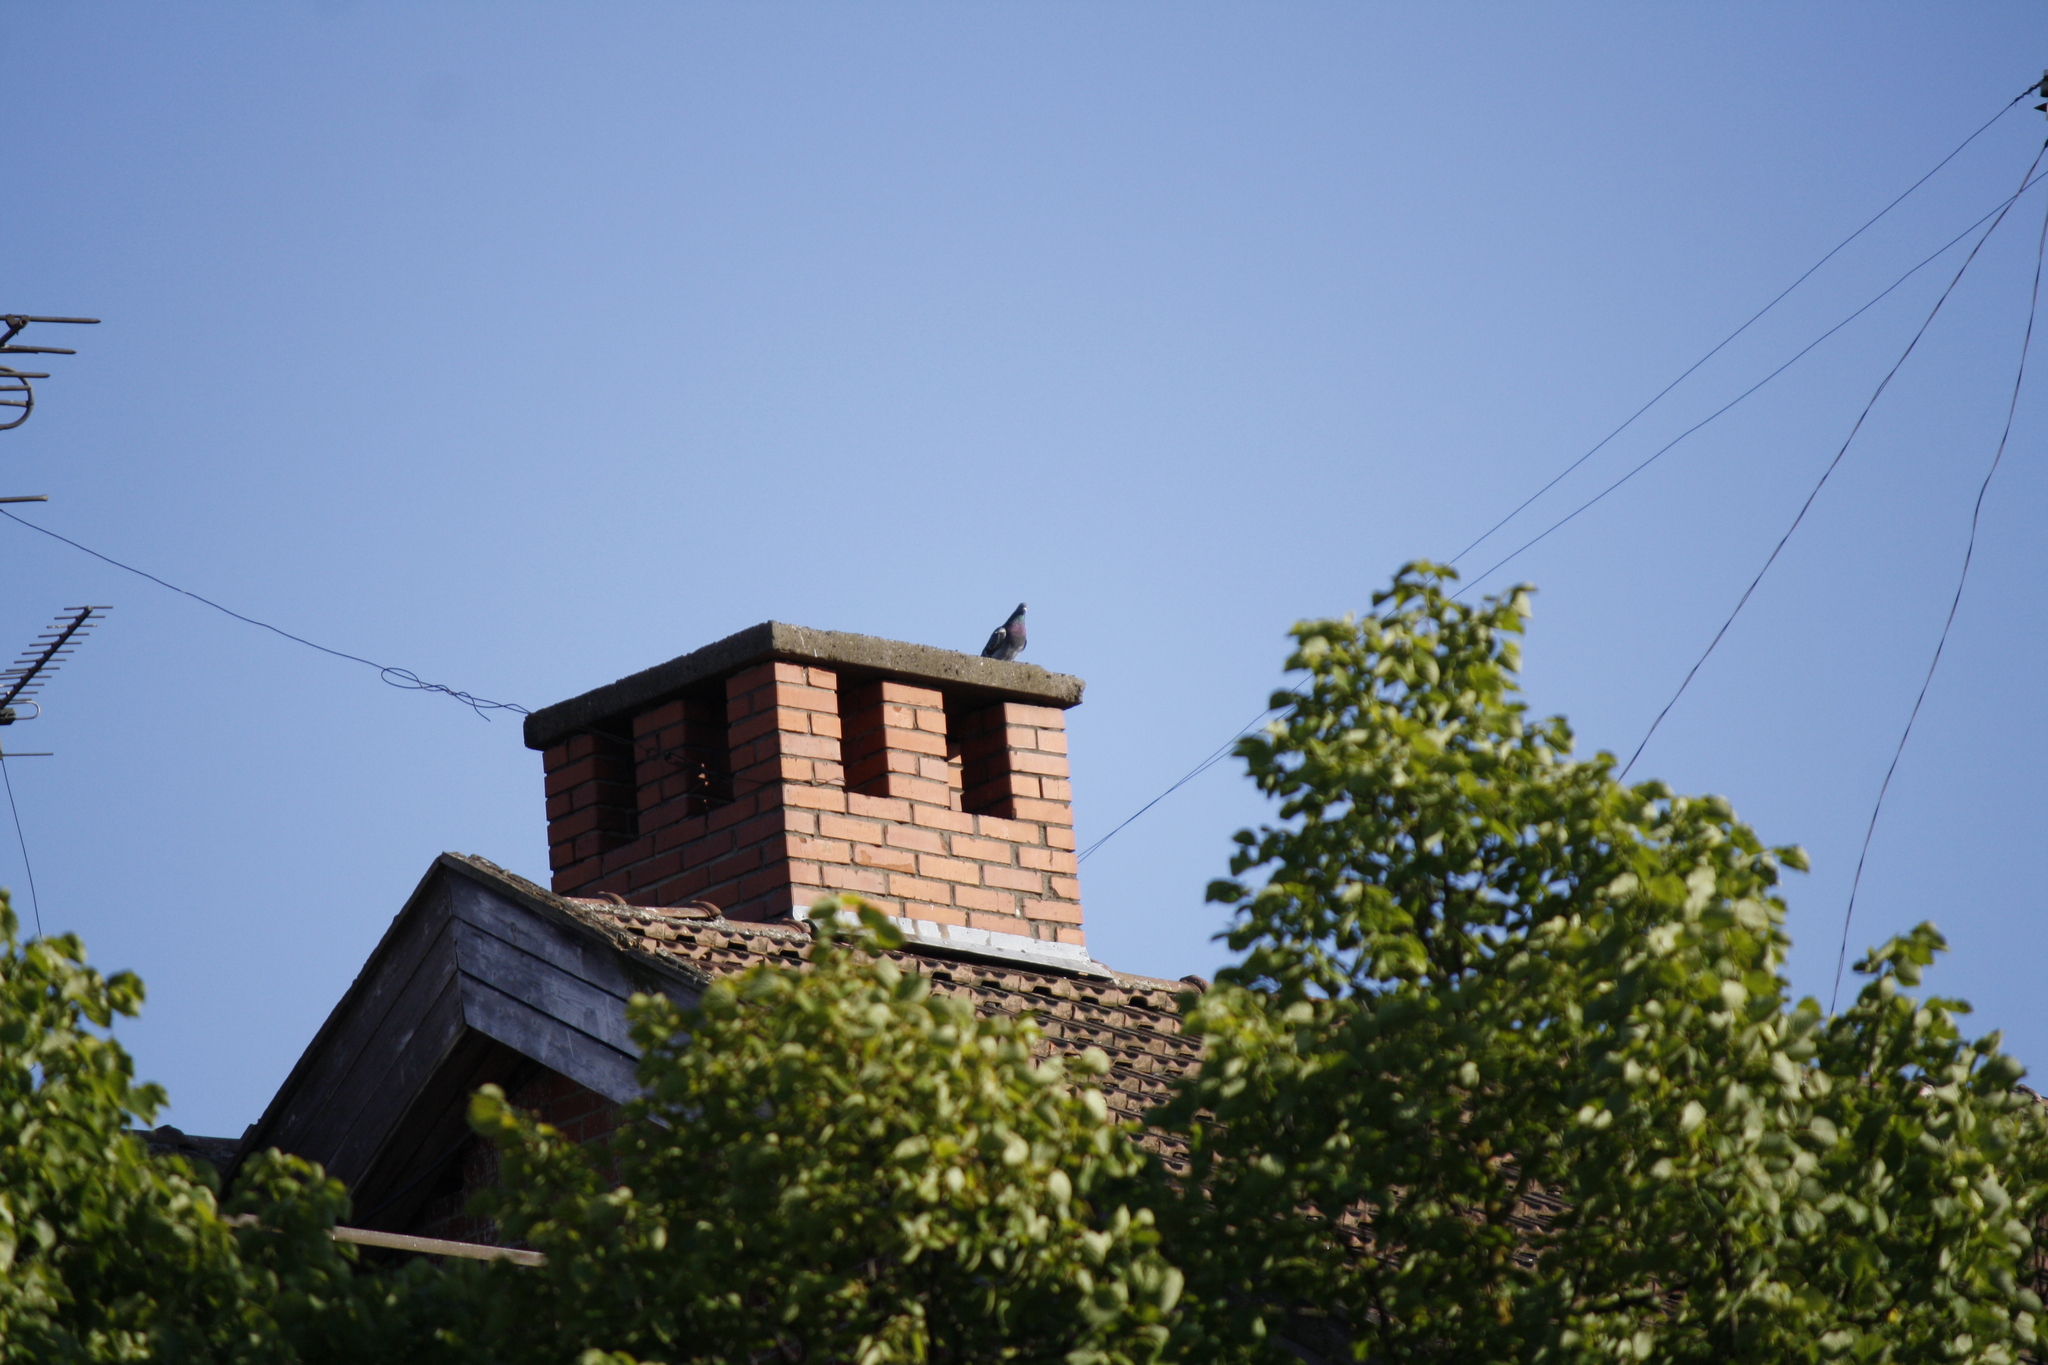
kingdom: Animalia
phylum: Chordata
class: Aves
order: Columbiformes
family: Columbidae
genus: Columba
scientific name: Columba livia
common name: Rock pigeon
